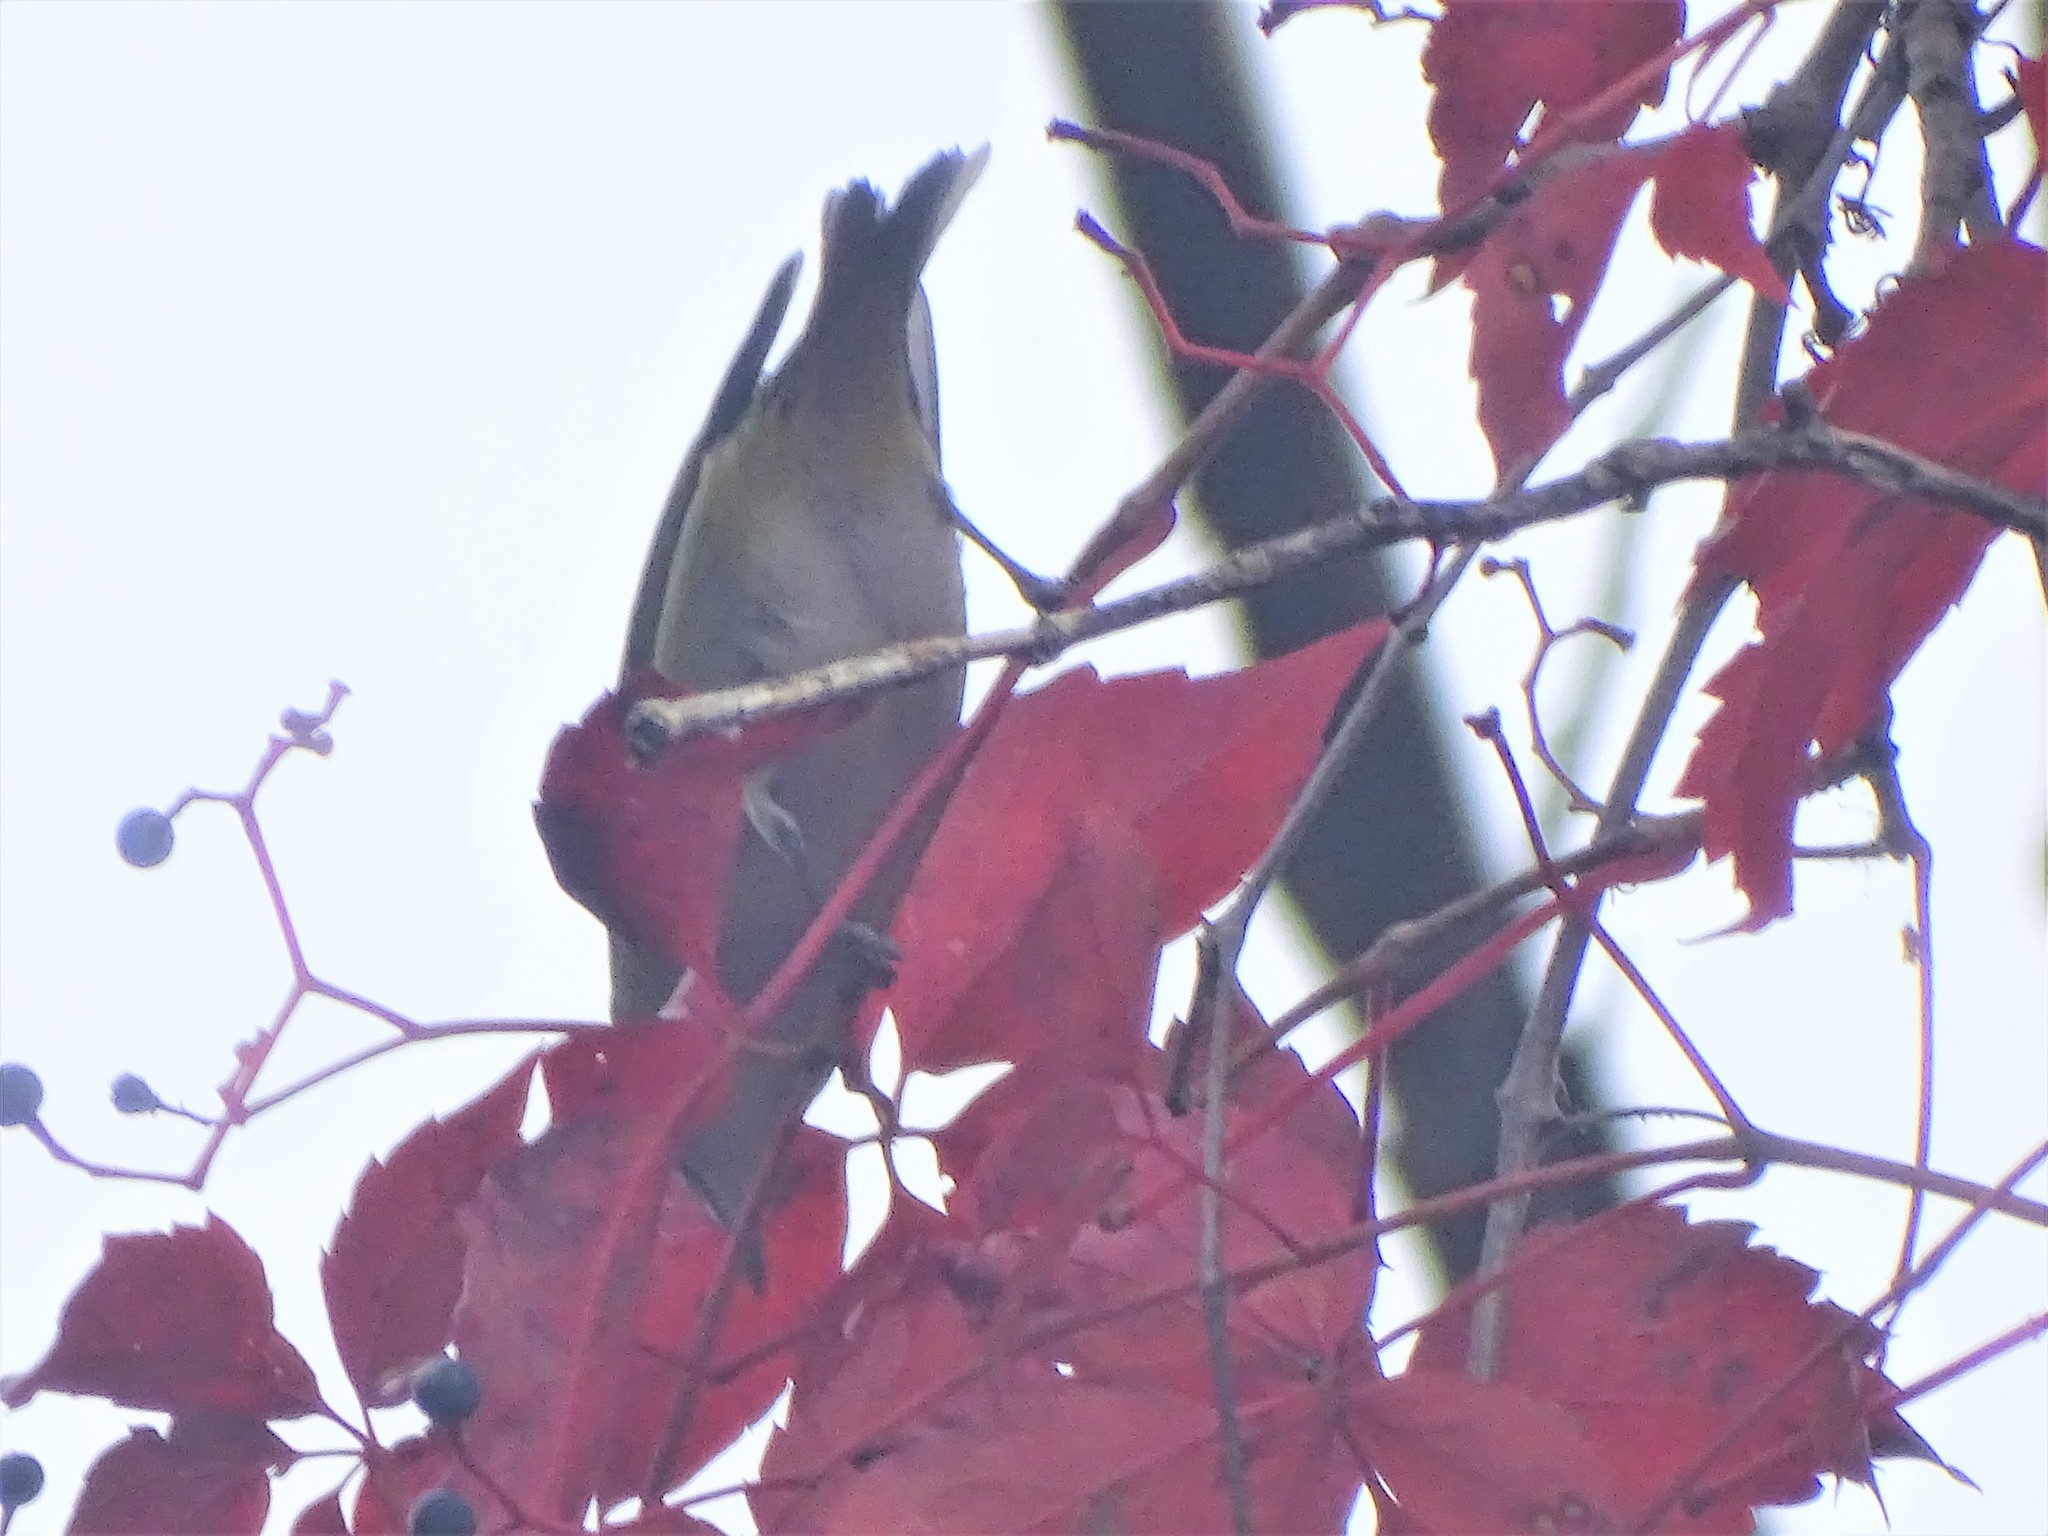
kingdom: Animalia
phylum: Chordata
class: Aves
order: Passeriformes
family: Vireonidae
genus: Vireo
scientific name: Vireo olivaceus
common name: Red-eyed vireo
